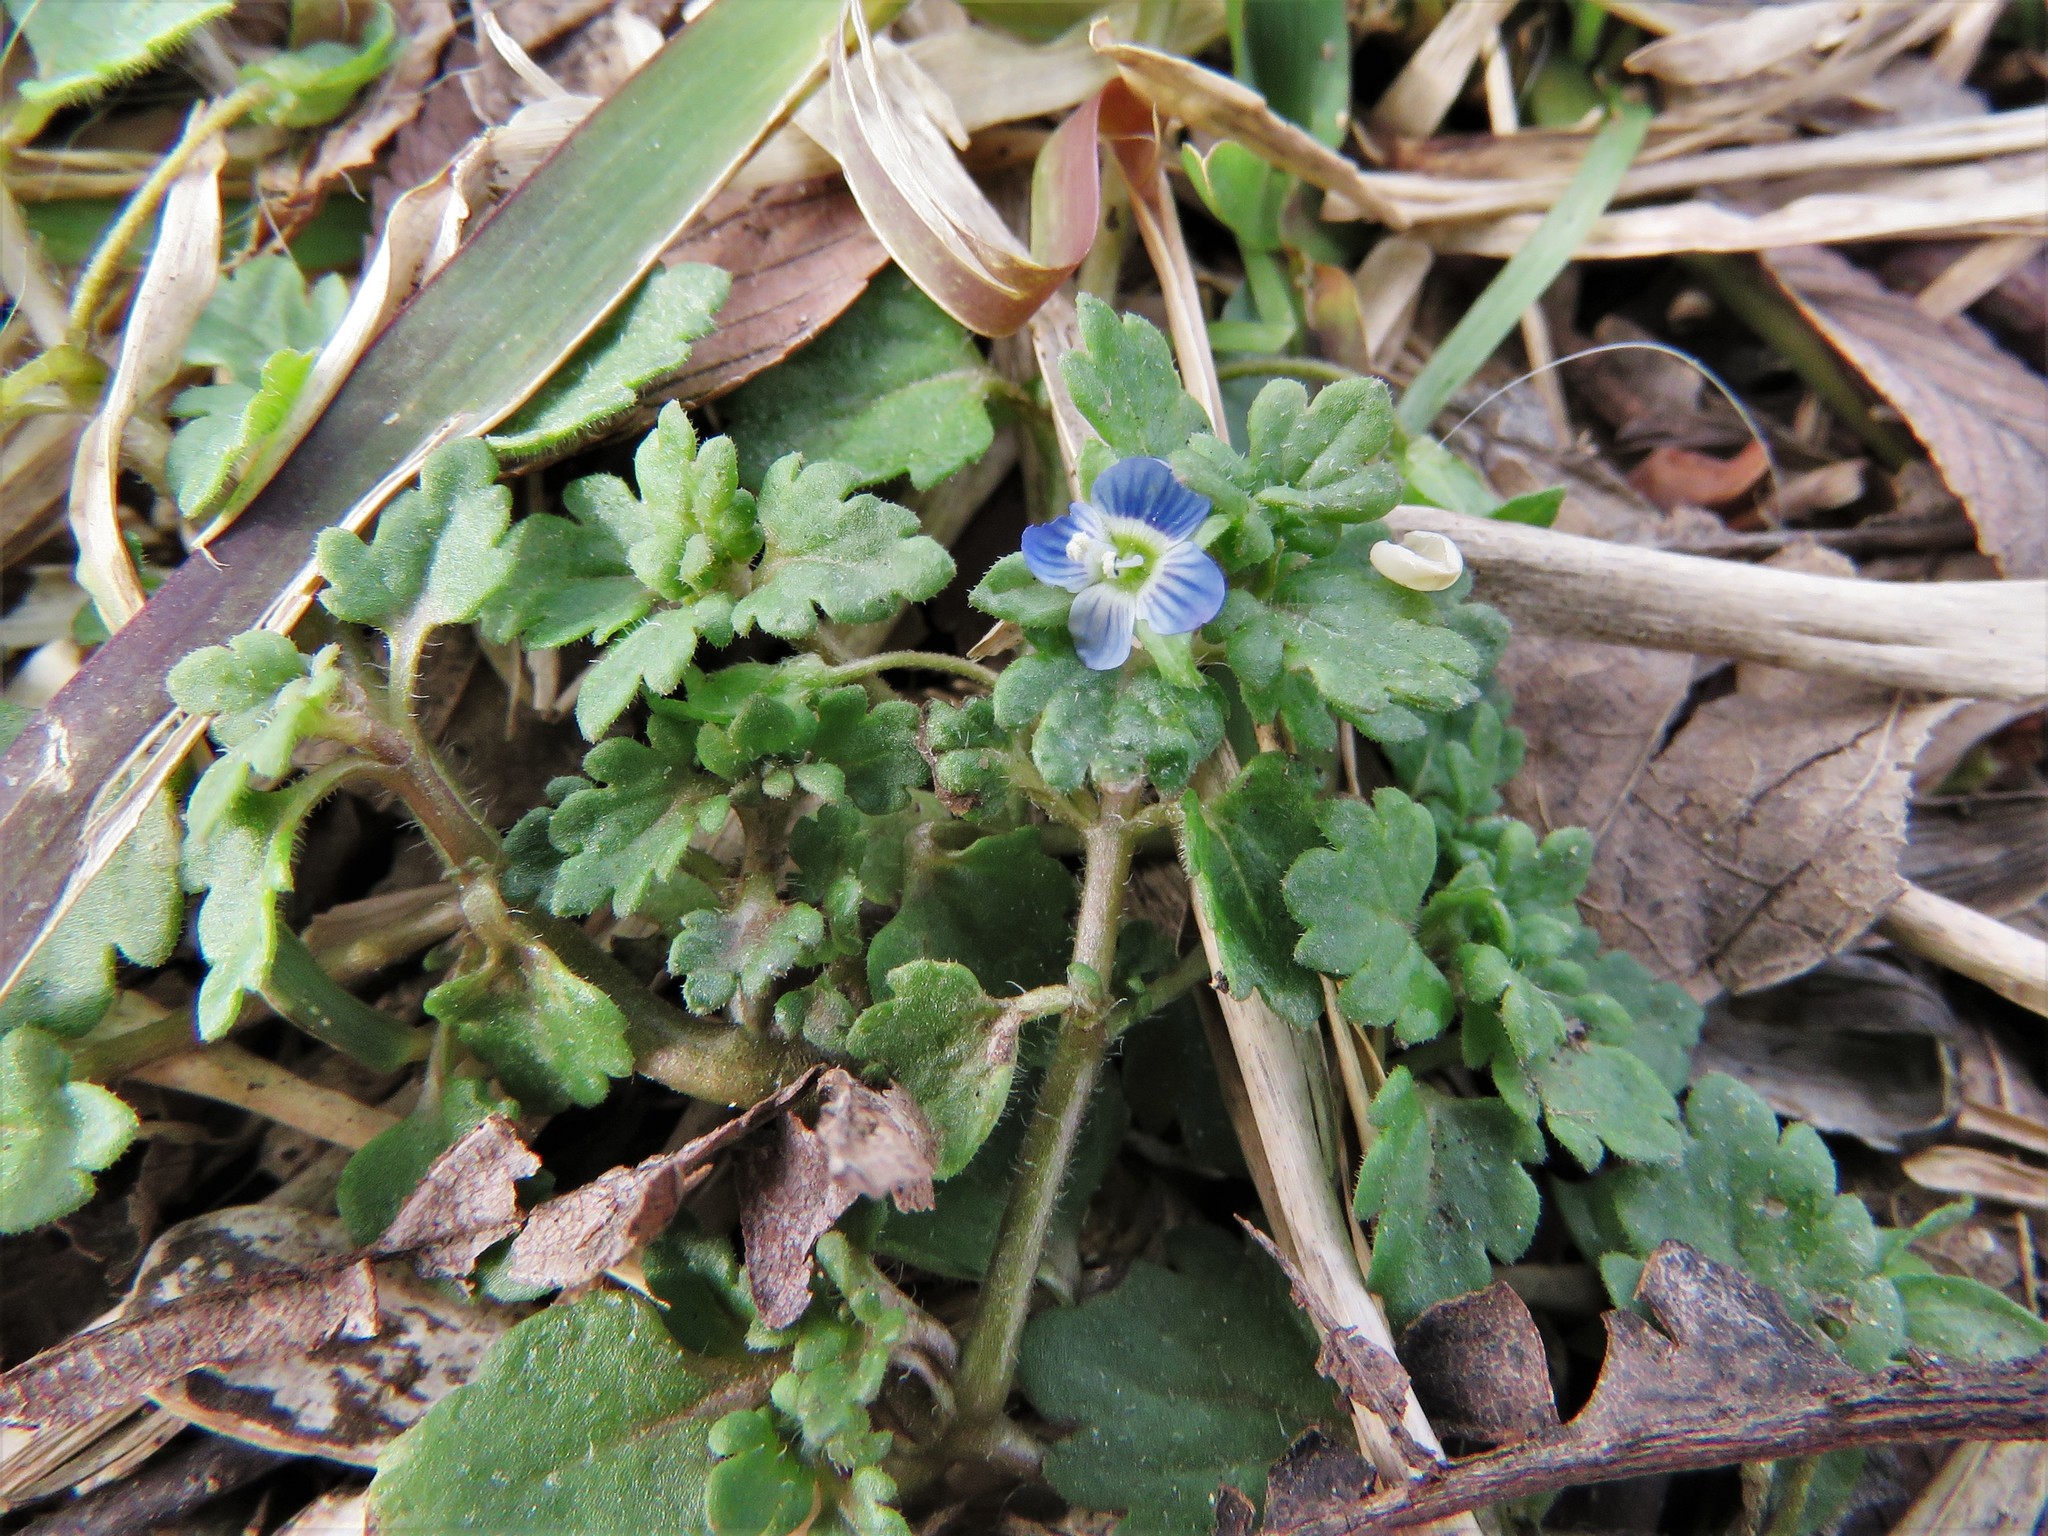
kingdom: Plantae
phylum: Tracheophyta
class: Magnoliopsida
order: Lamiales
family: Plantaginaceae
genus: Veronica
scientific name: Veronica polita
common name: Grey field-speedwell
